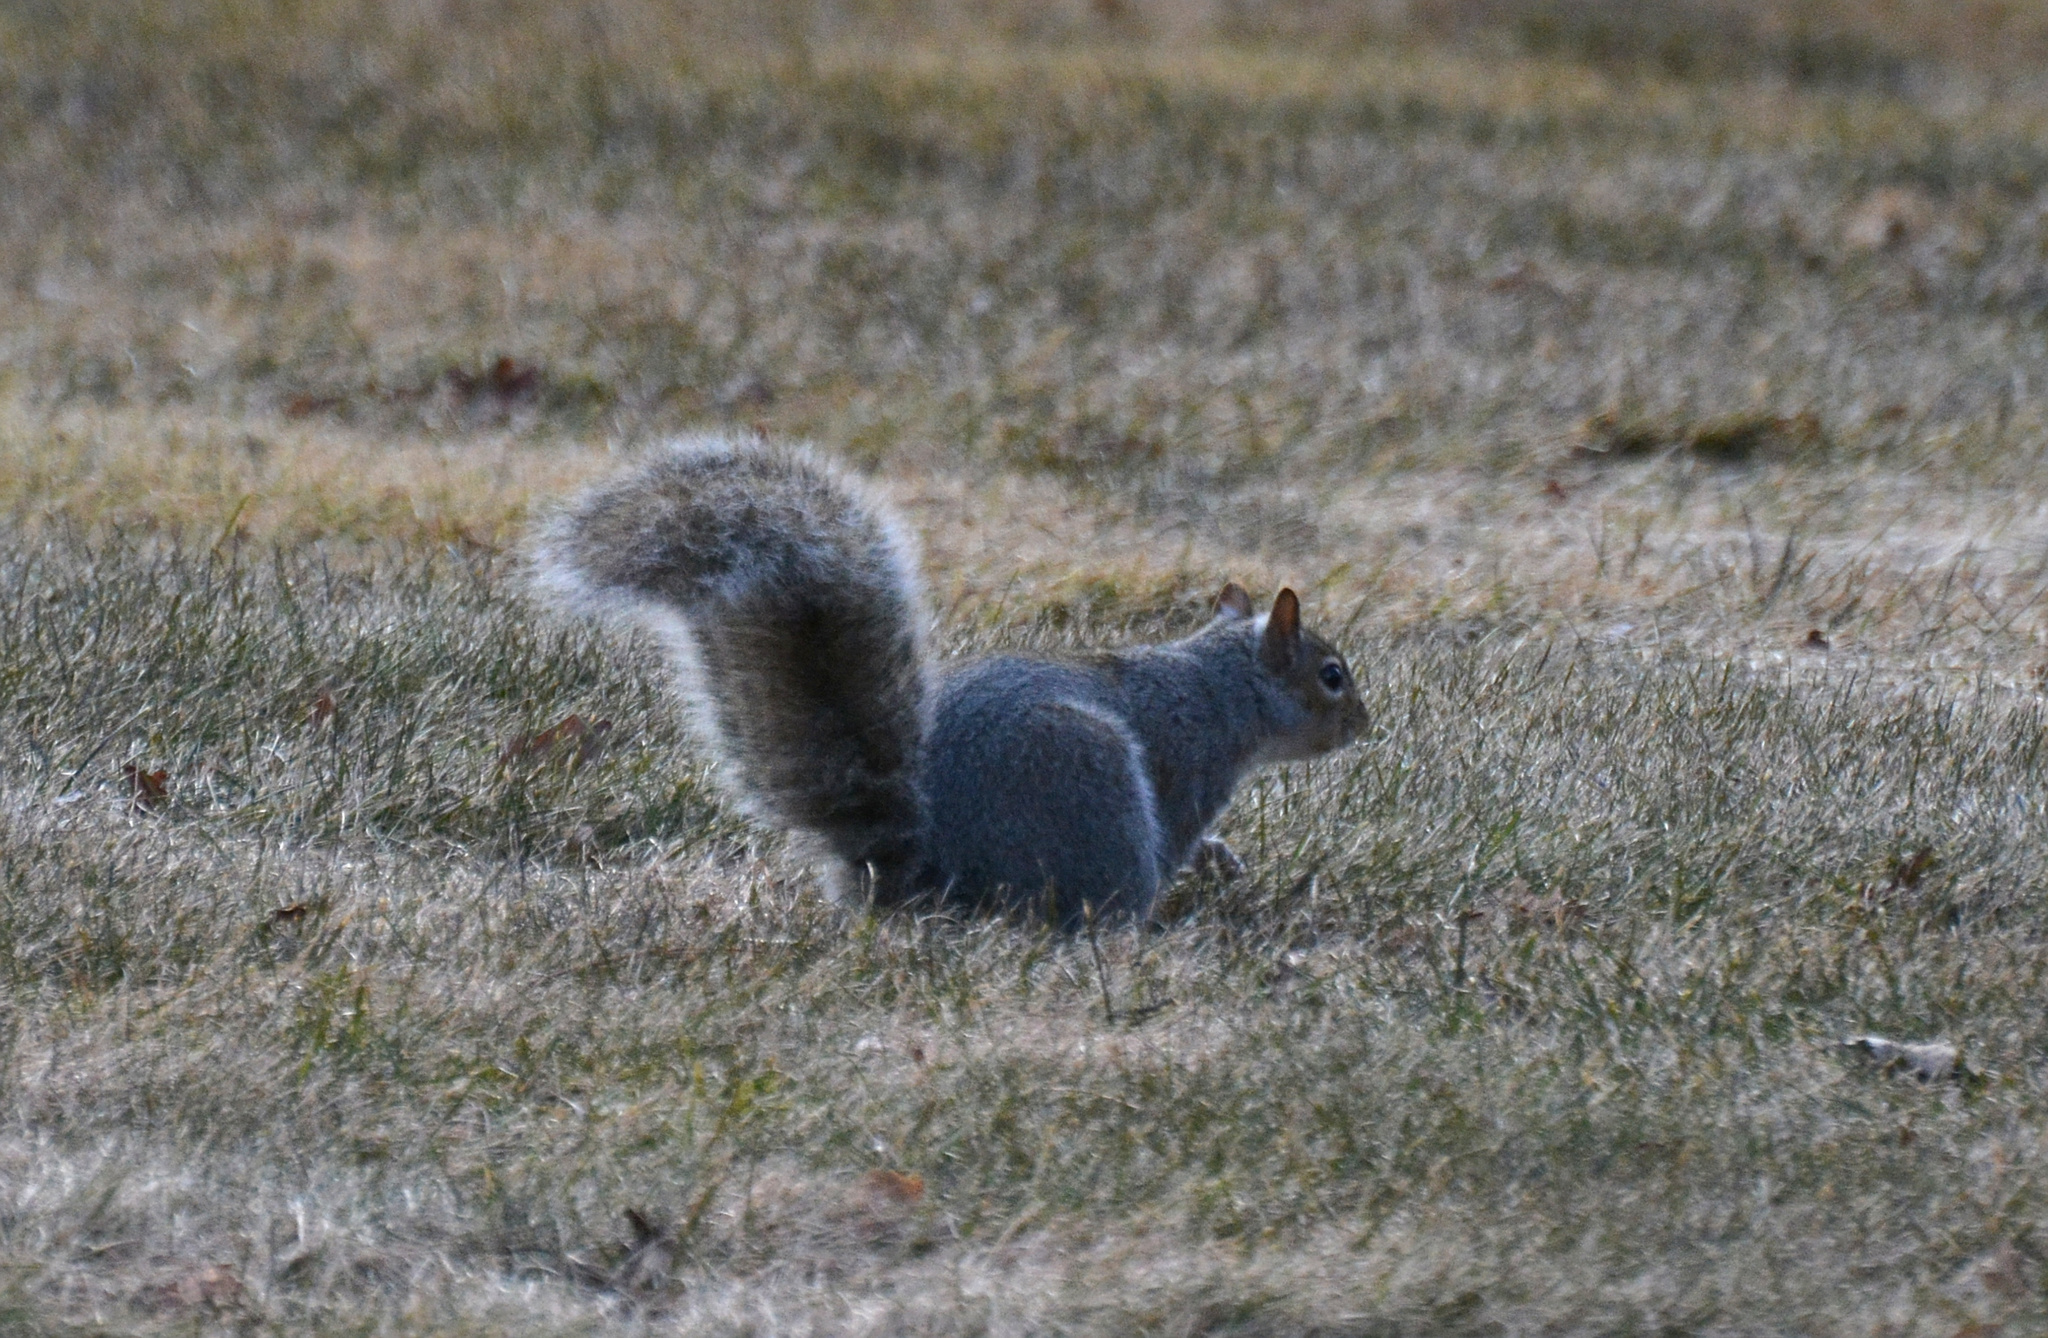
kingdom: Animalia
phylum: Chordata
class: Mammalia
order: Rodentia
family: Sciuridae
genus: Sciurus
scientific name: Sciurus carolinensis
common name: Eastern gray squirrel
